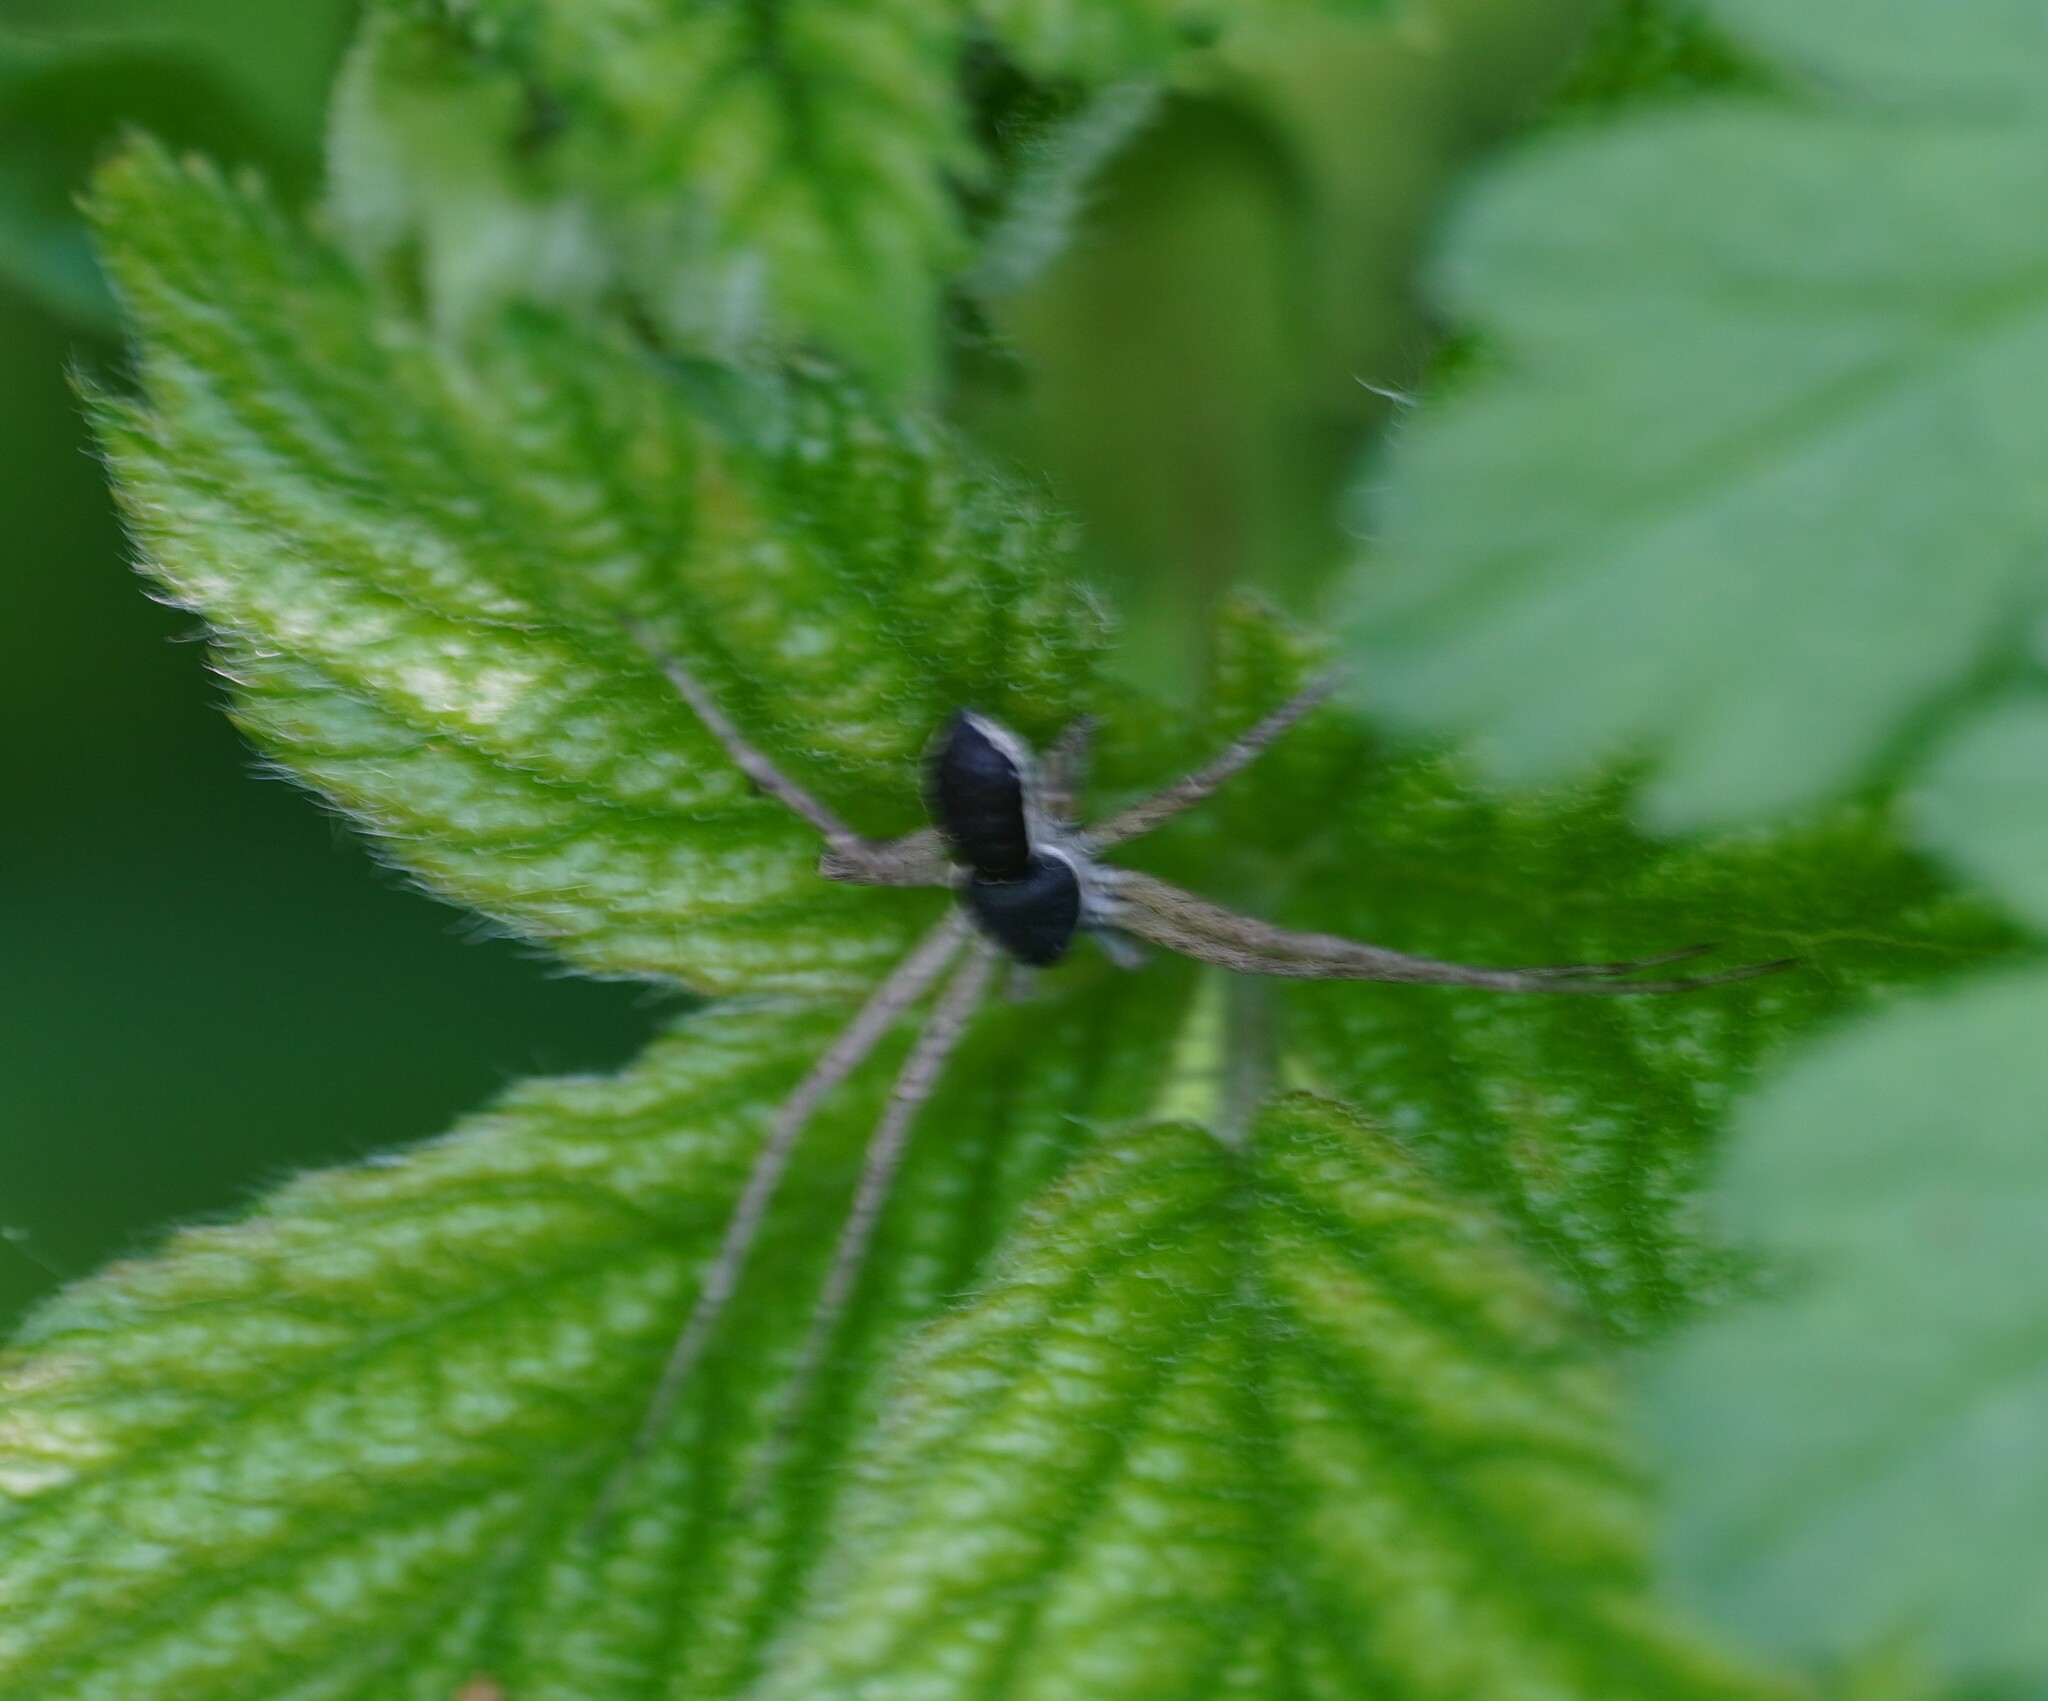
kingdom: Animalia
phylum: Arthropoda
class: Arachnida
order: Araneae
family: Philodromidae
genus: Philodromus
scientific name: Philodromus dispar
